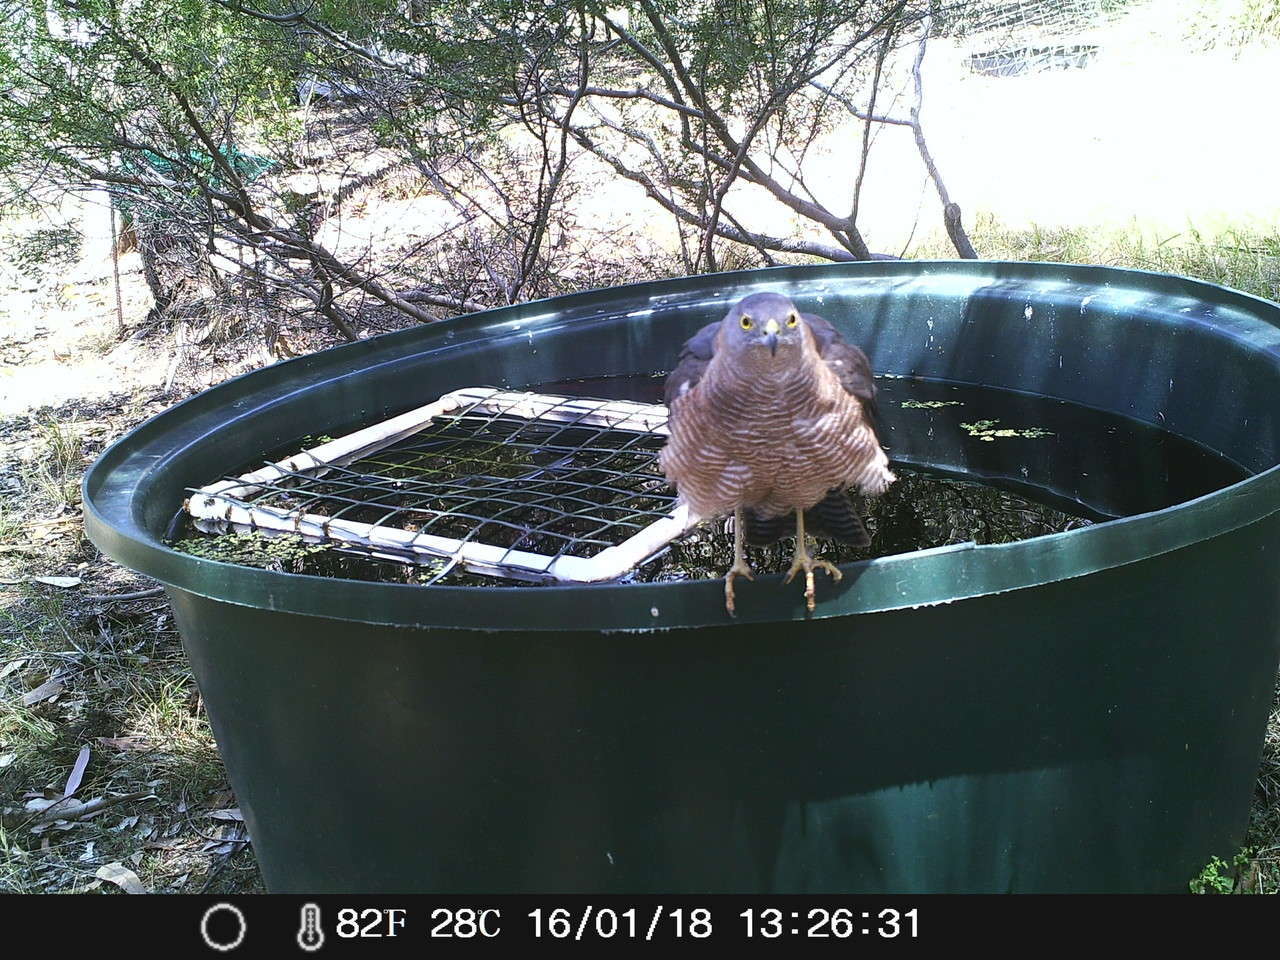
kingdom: Animalia
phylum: Chordata
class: Aves
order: Accipitriformes
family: Accipitridae
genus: Accipiter
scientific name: Accipiter fasciatus
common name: Brown goshawk
